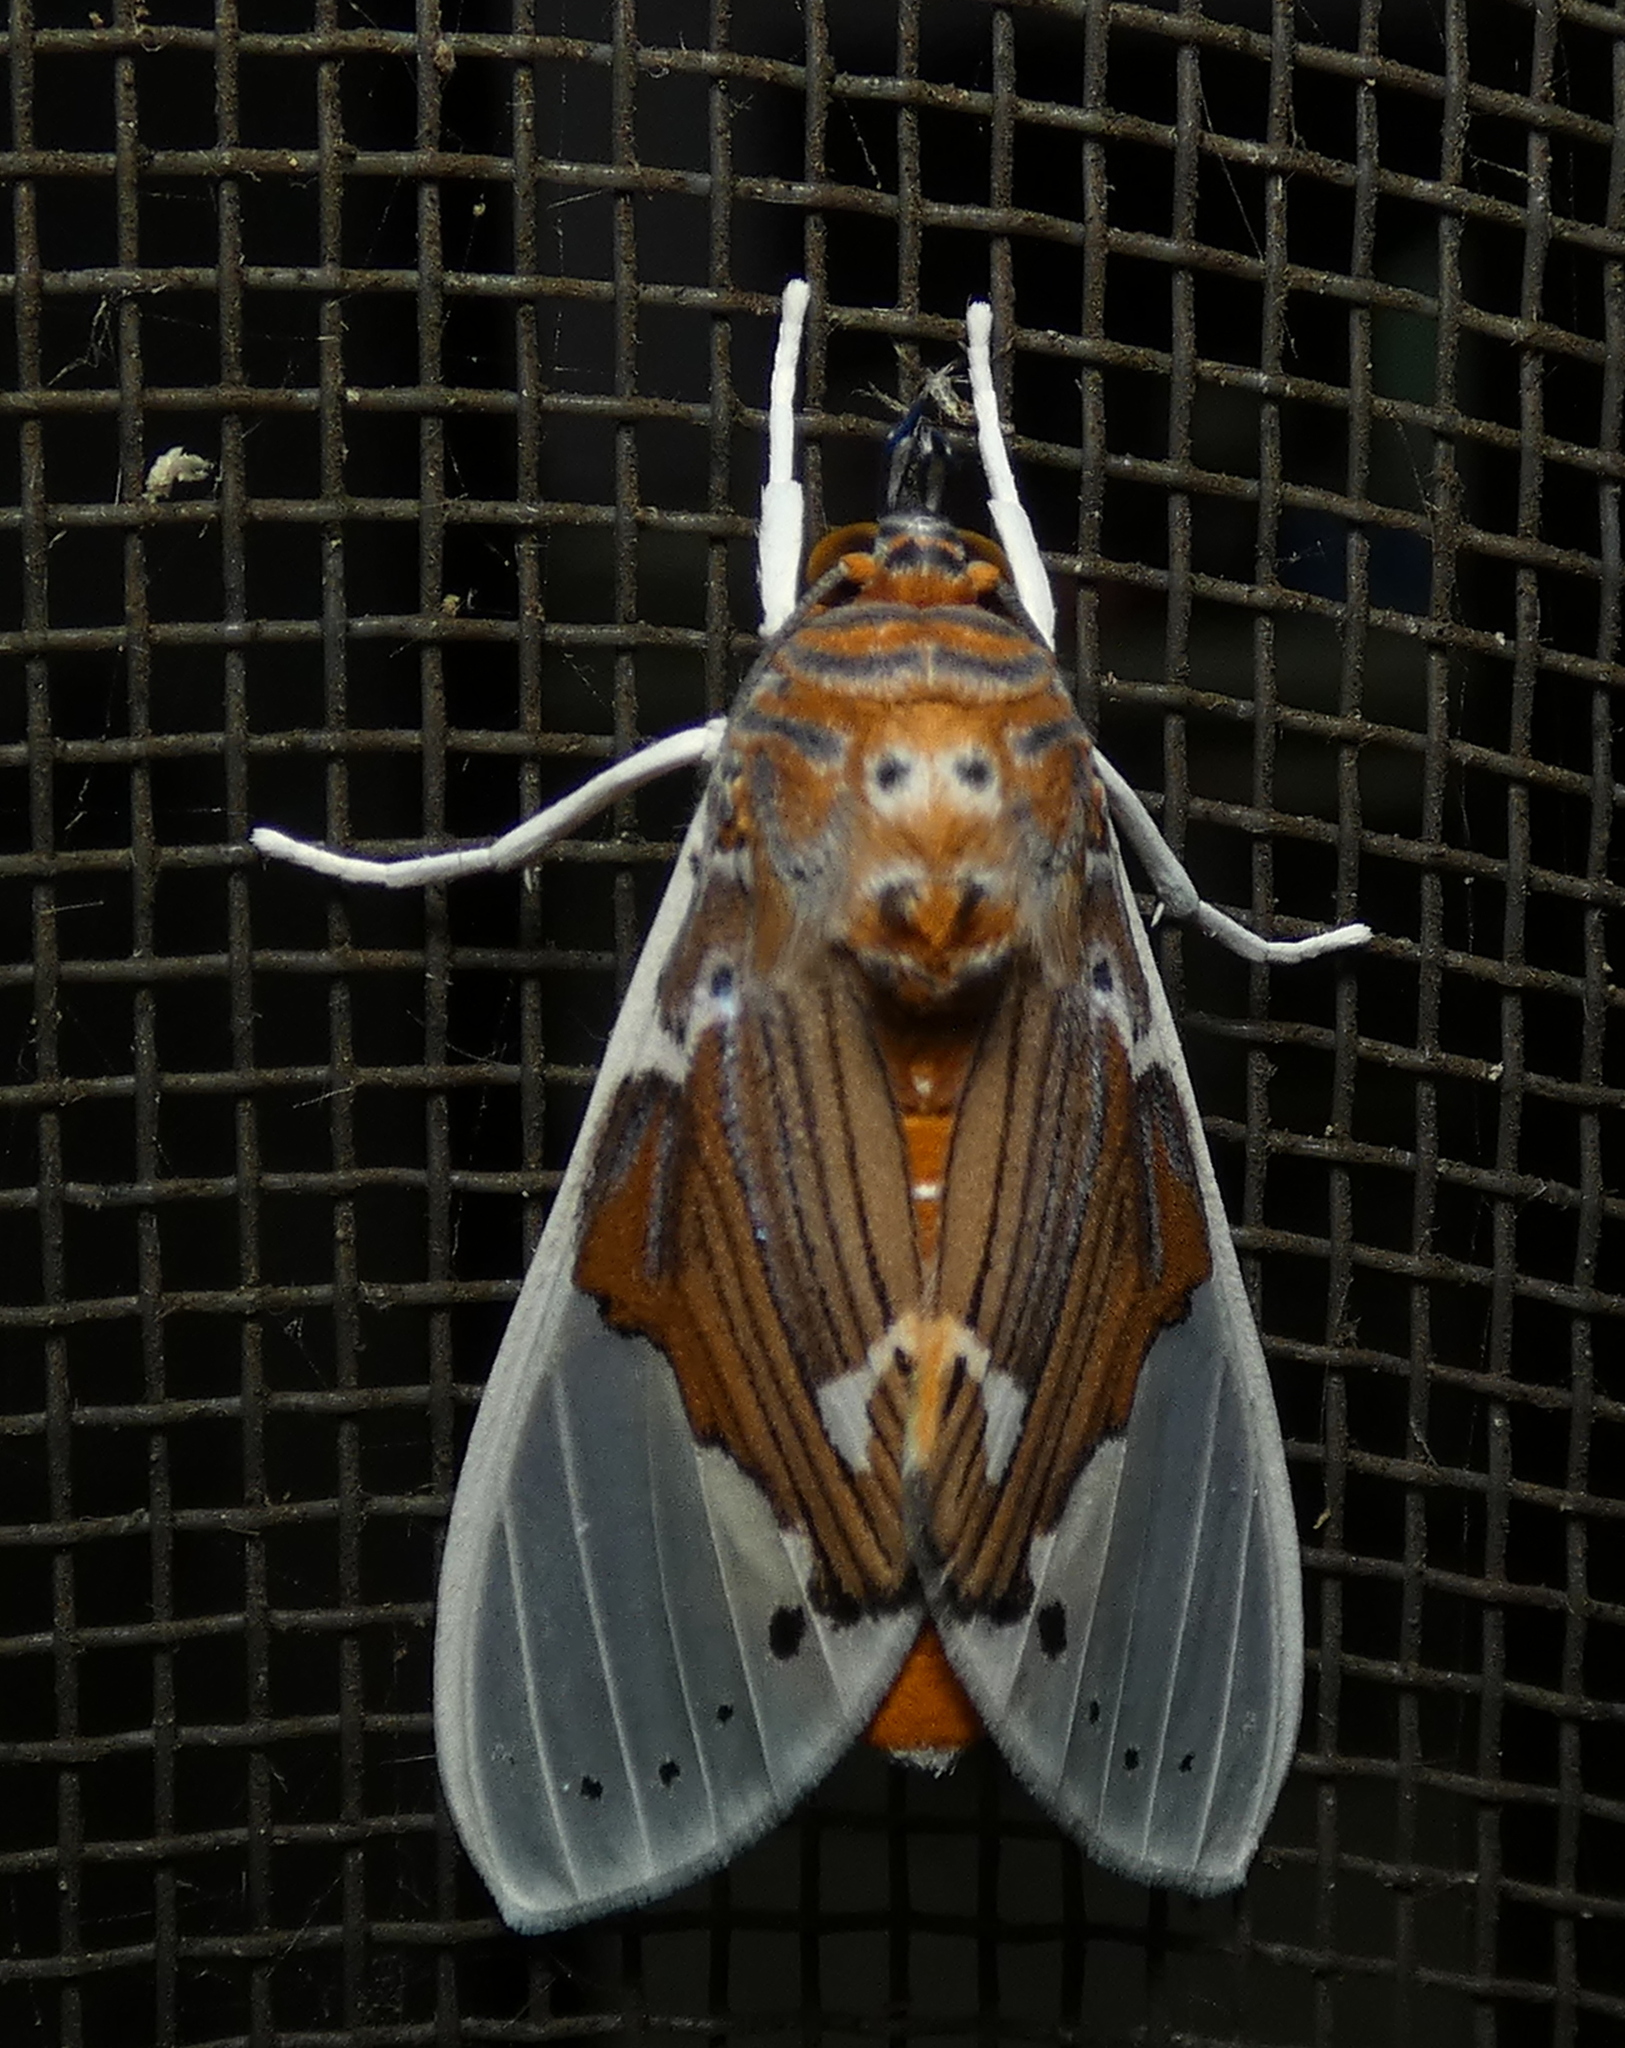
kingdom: Animalia
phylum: Arthropoda
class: Insecta
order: Lepidoptera
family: Erebidae
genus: Idalus
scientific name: Idalus vitrea
